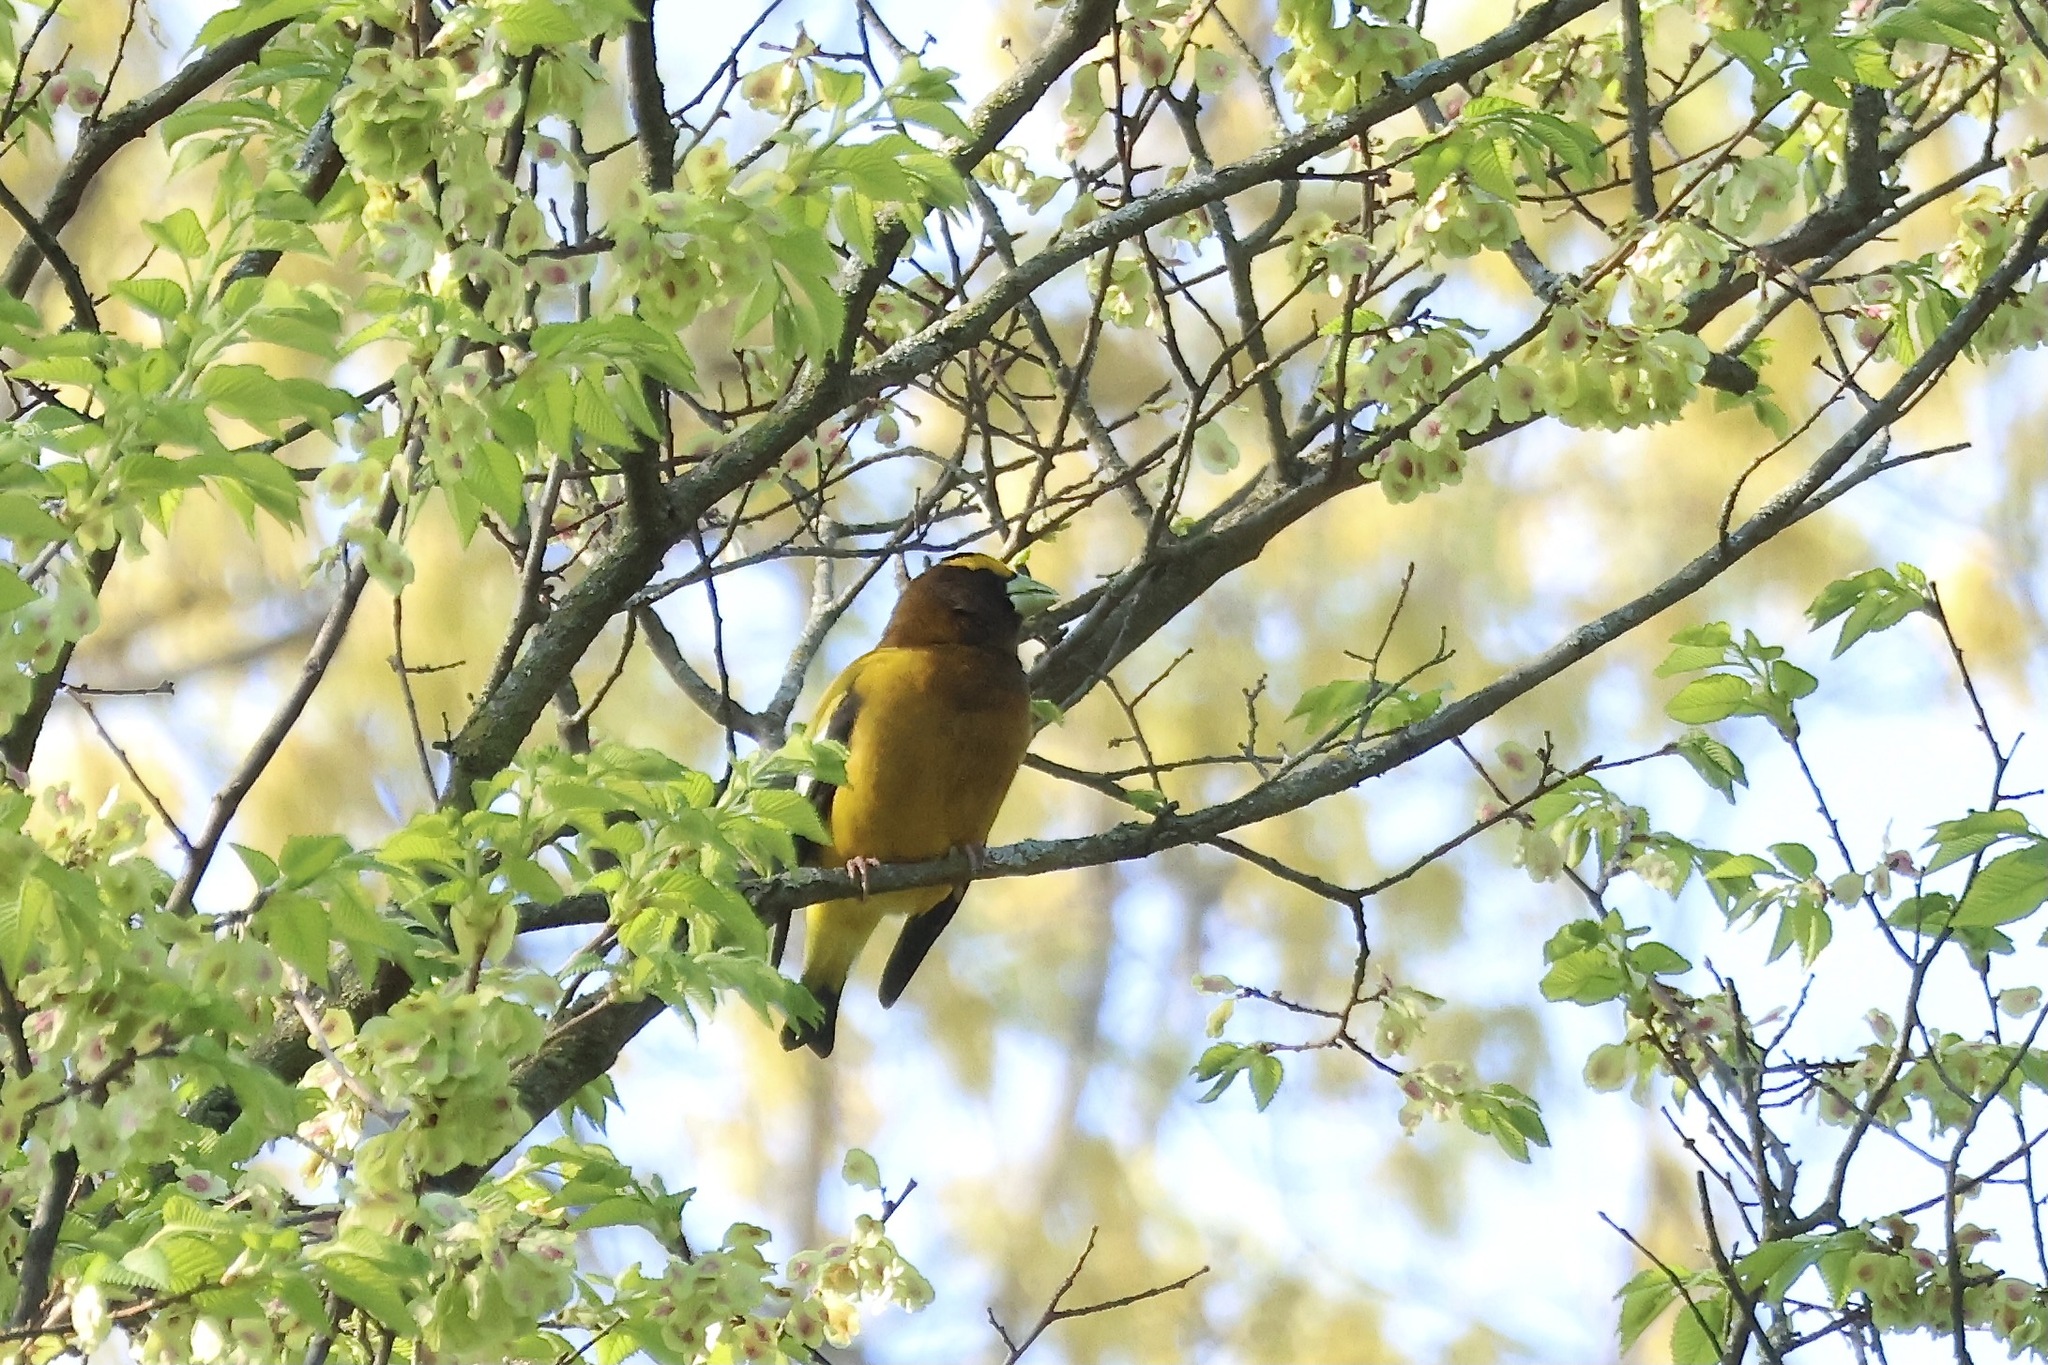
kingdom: Animalia
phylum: Chordata
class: Aves
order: Passeriformes
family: Fringillidae
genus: Hesperiphona
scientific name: Hesperiphona vespertina
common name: Evening grosbeak
